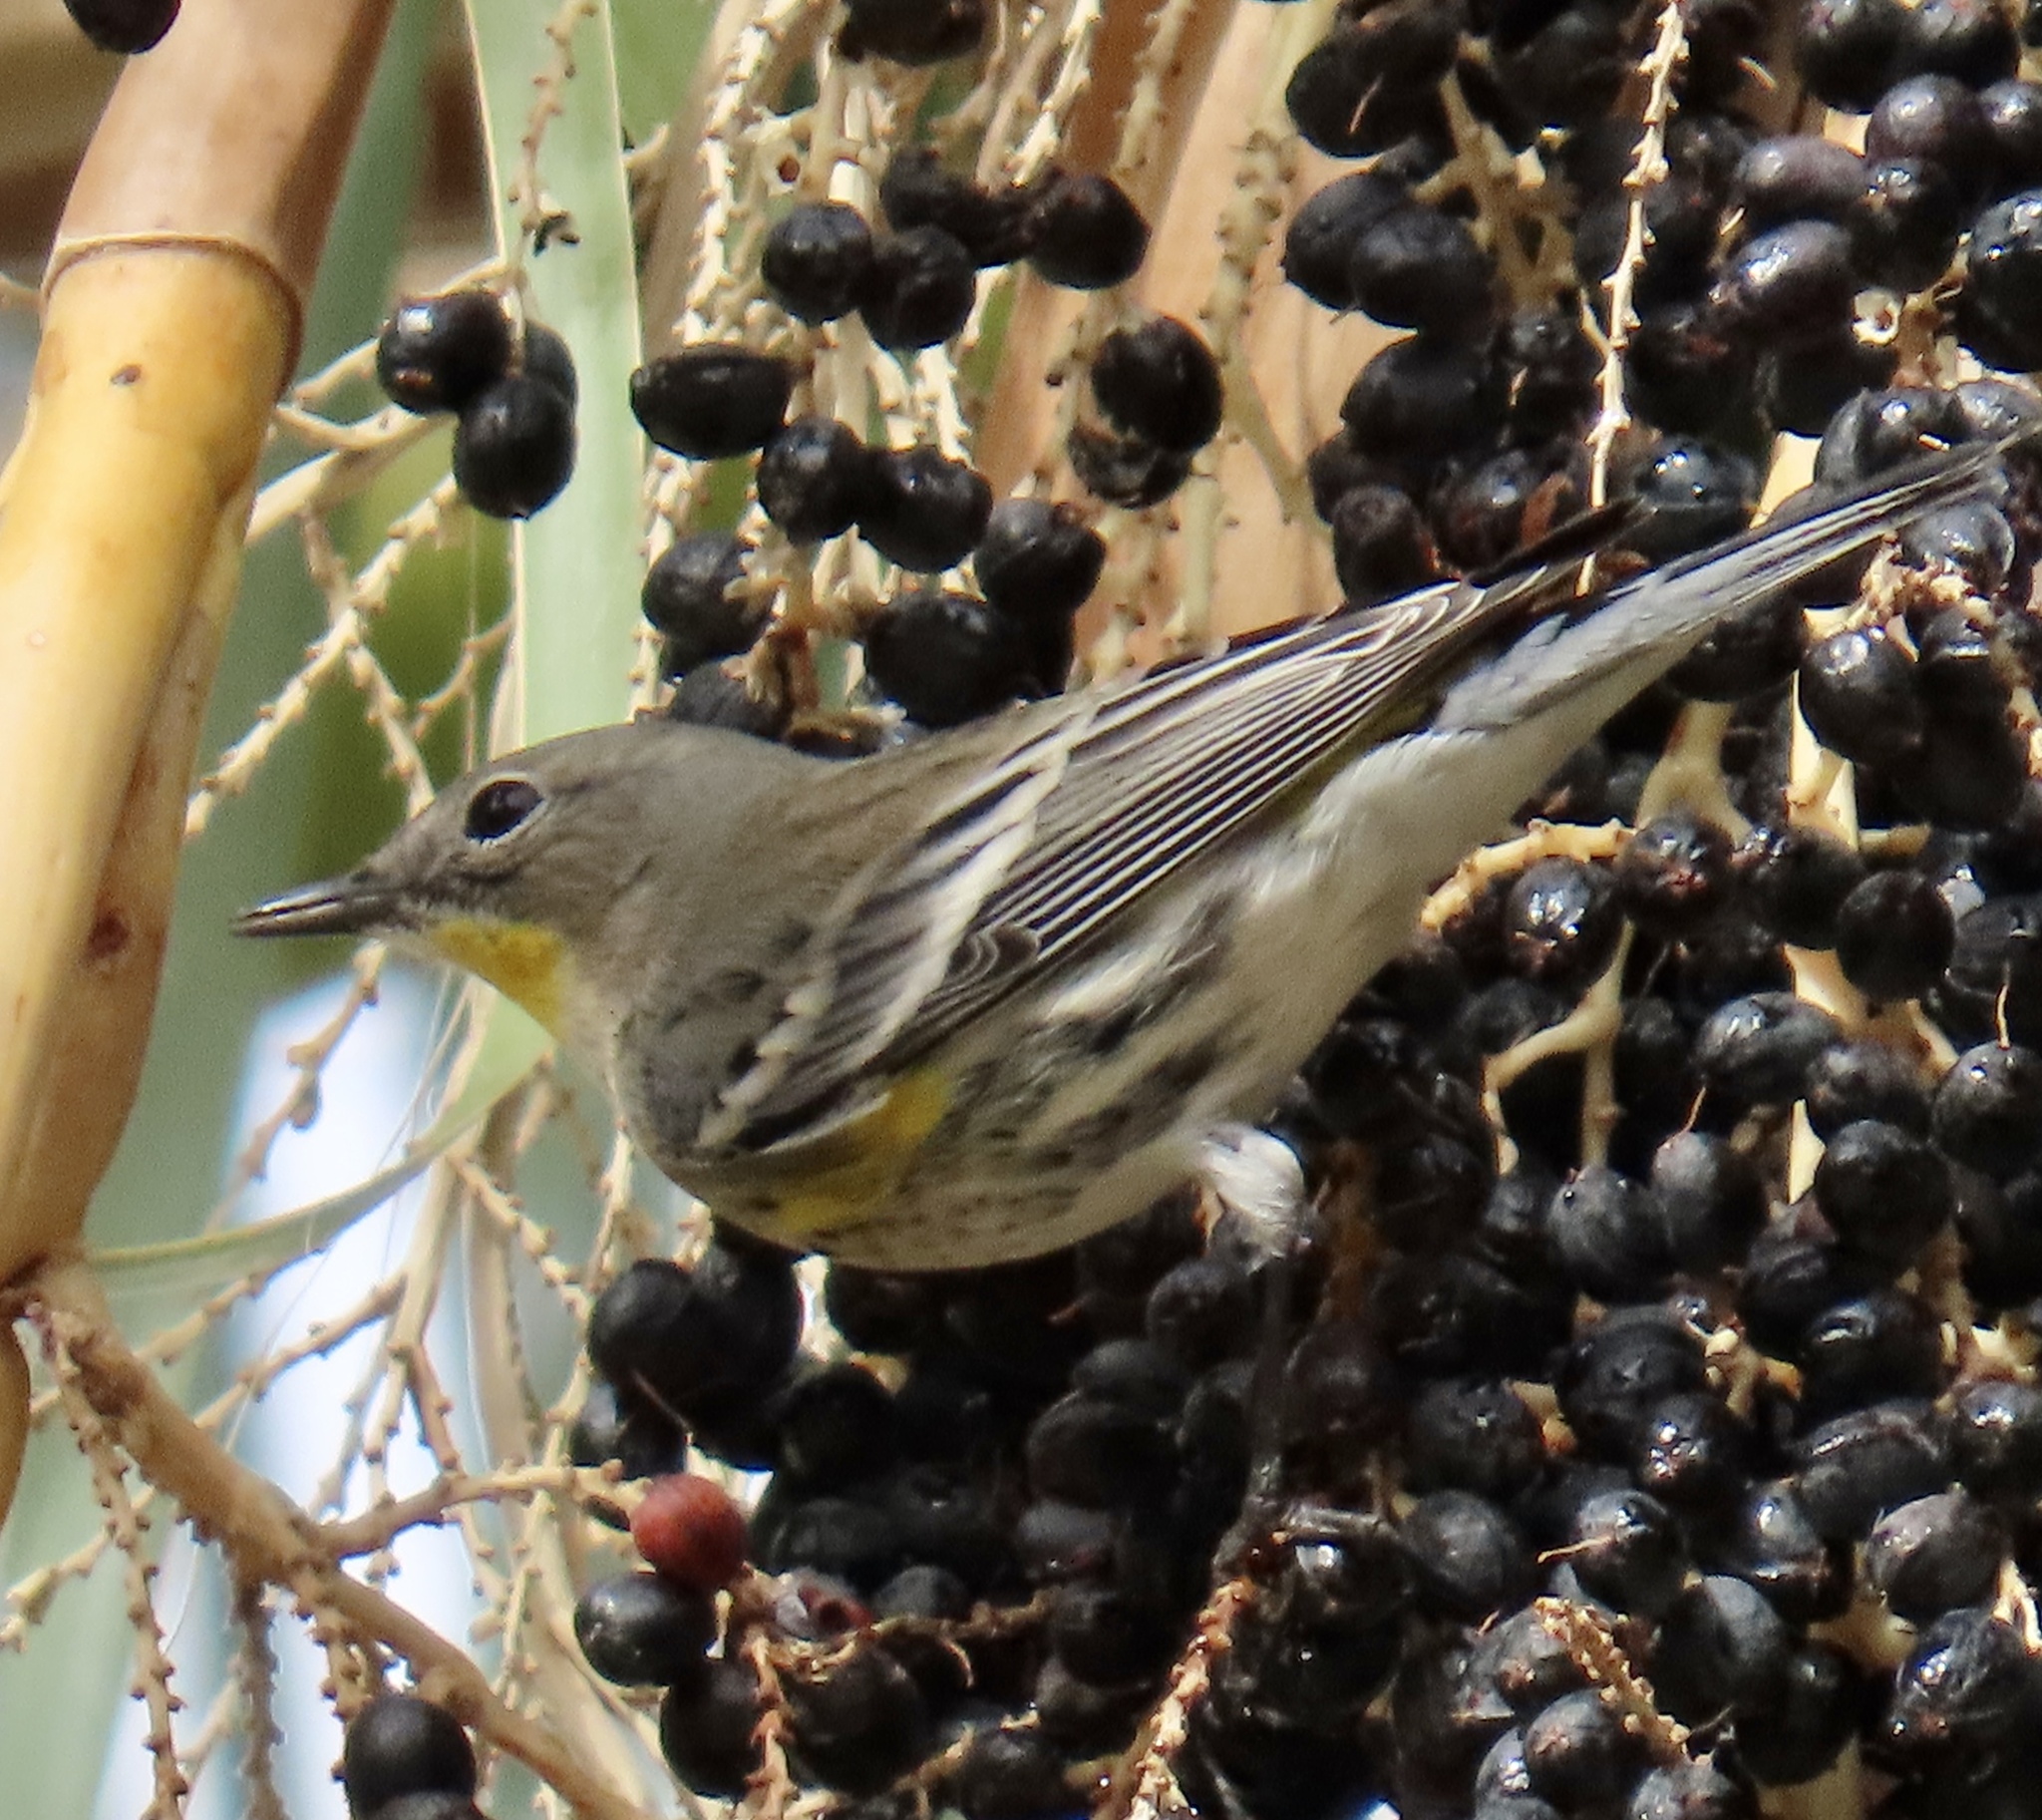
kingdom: Animalia
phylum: Chordata
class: Aves
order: Passeriformes
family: Parulidae
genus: Setophaga
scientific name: Setophaga auduboni
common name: Audubon's warbler
